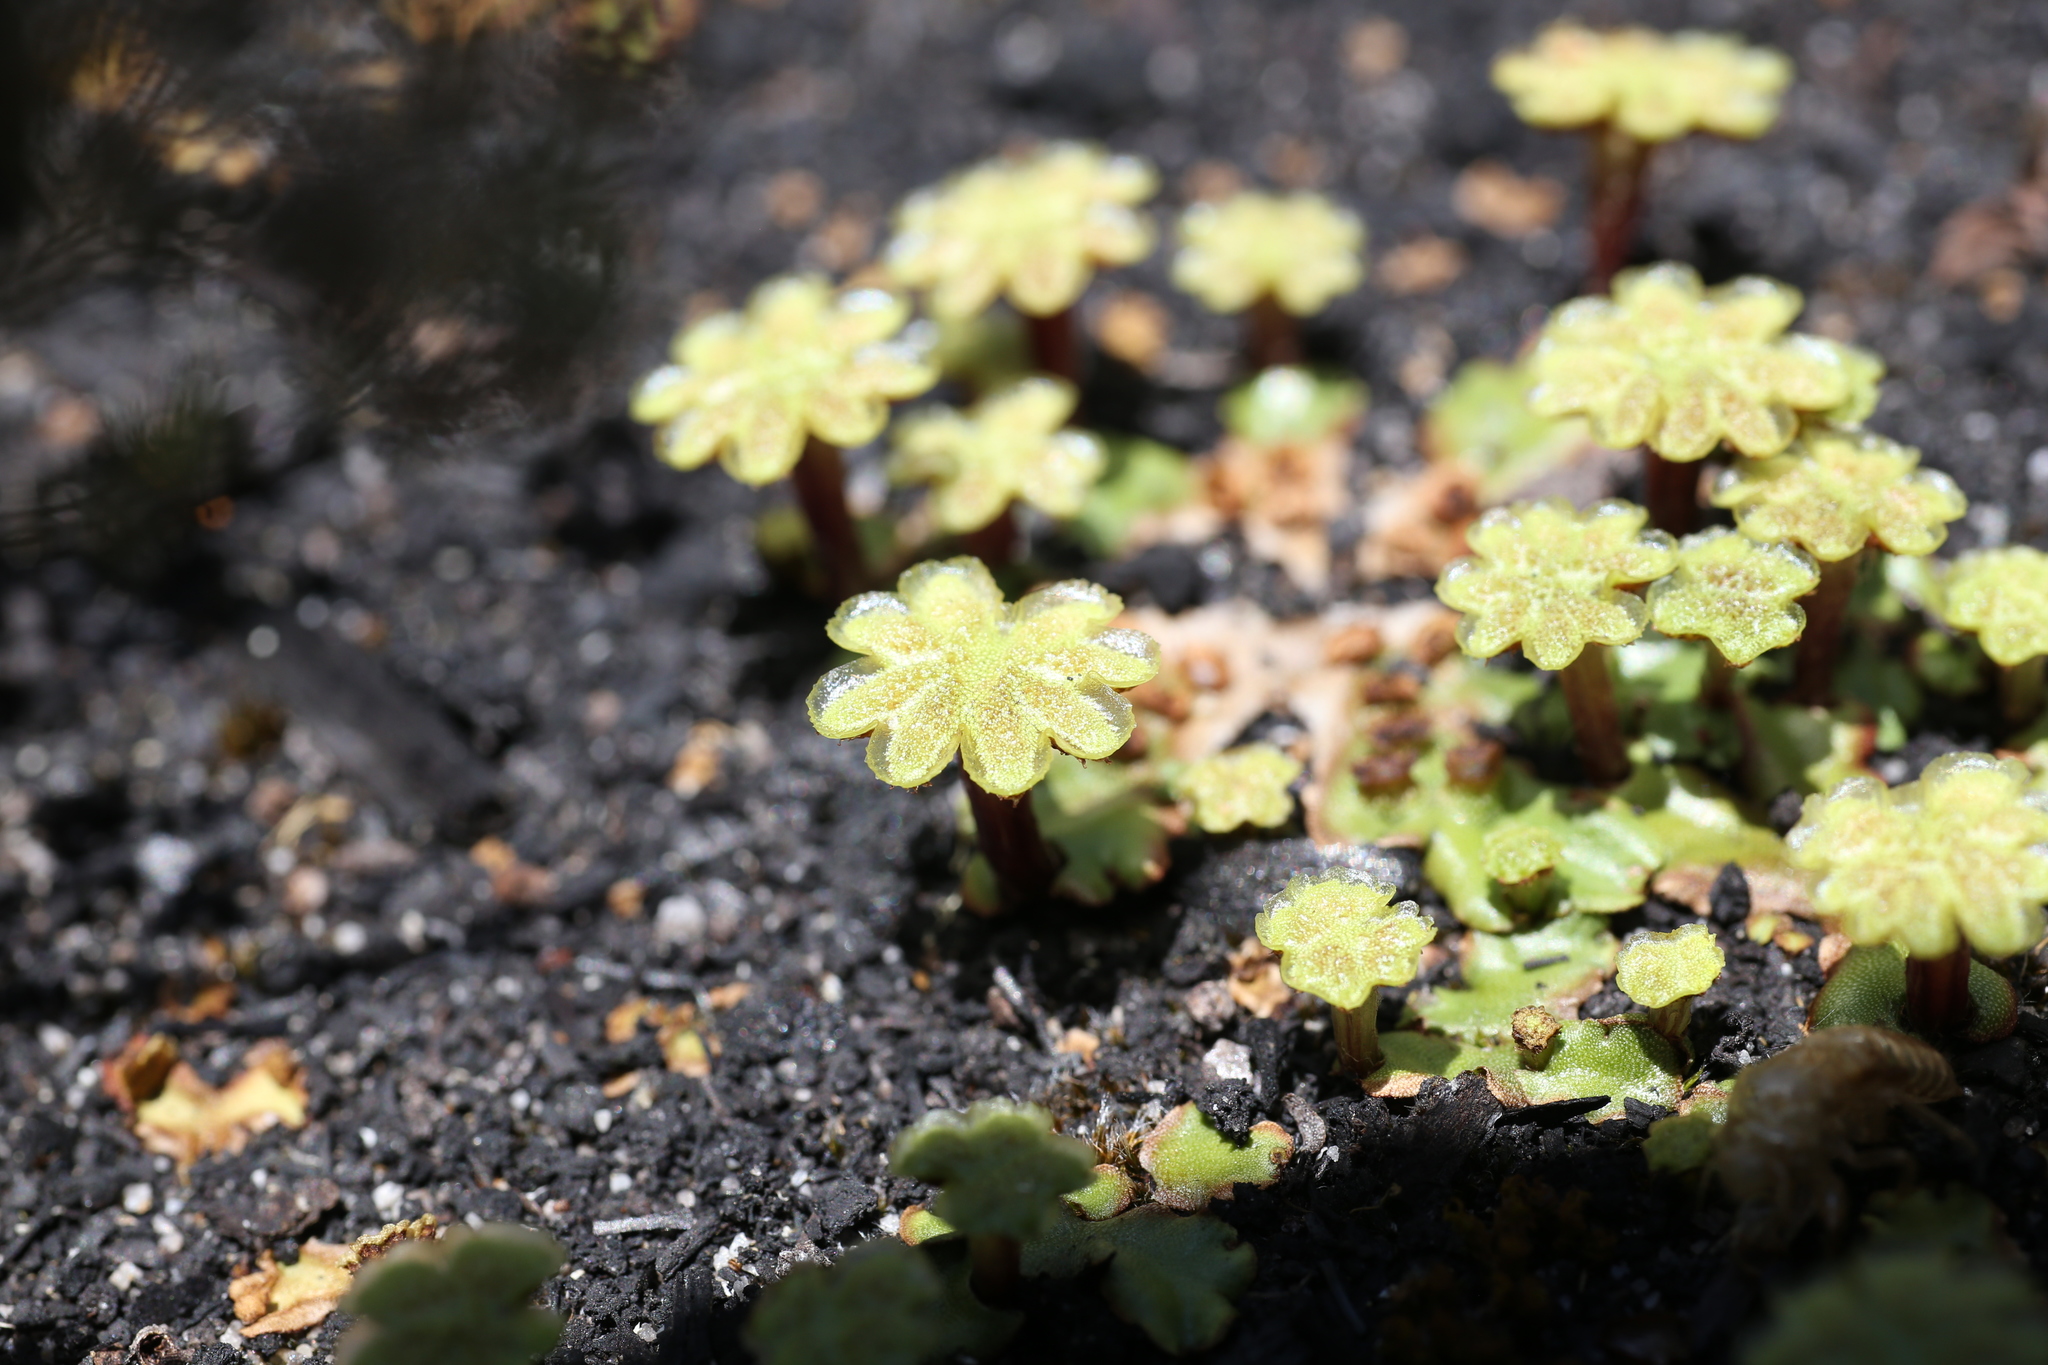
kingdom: Plantae
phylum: Marchantiophyta
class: Marchantiopsida
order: Marchantiales
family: Marchantiaceae
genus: Marchantia
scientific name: Marchantia berteroana
